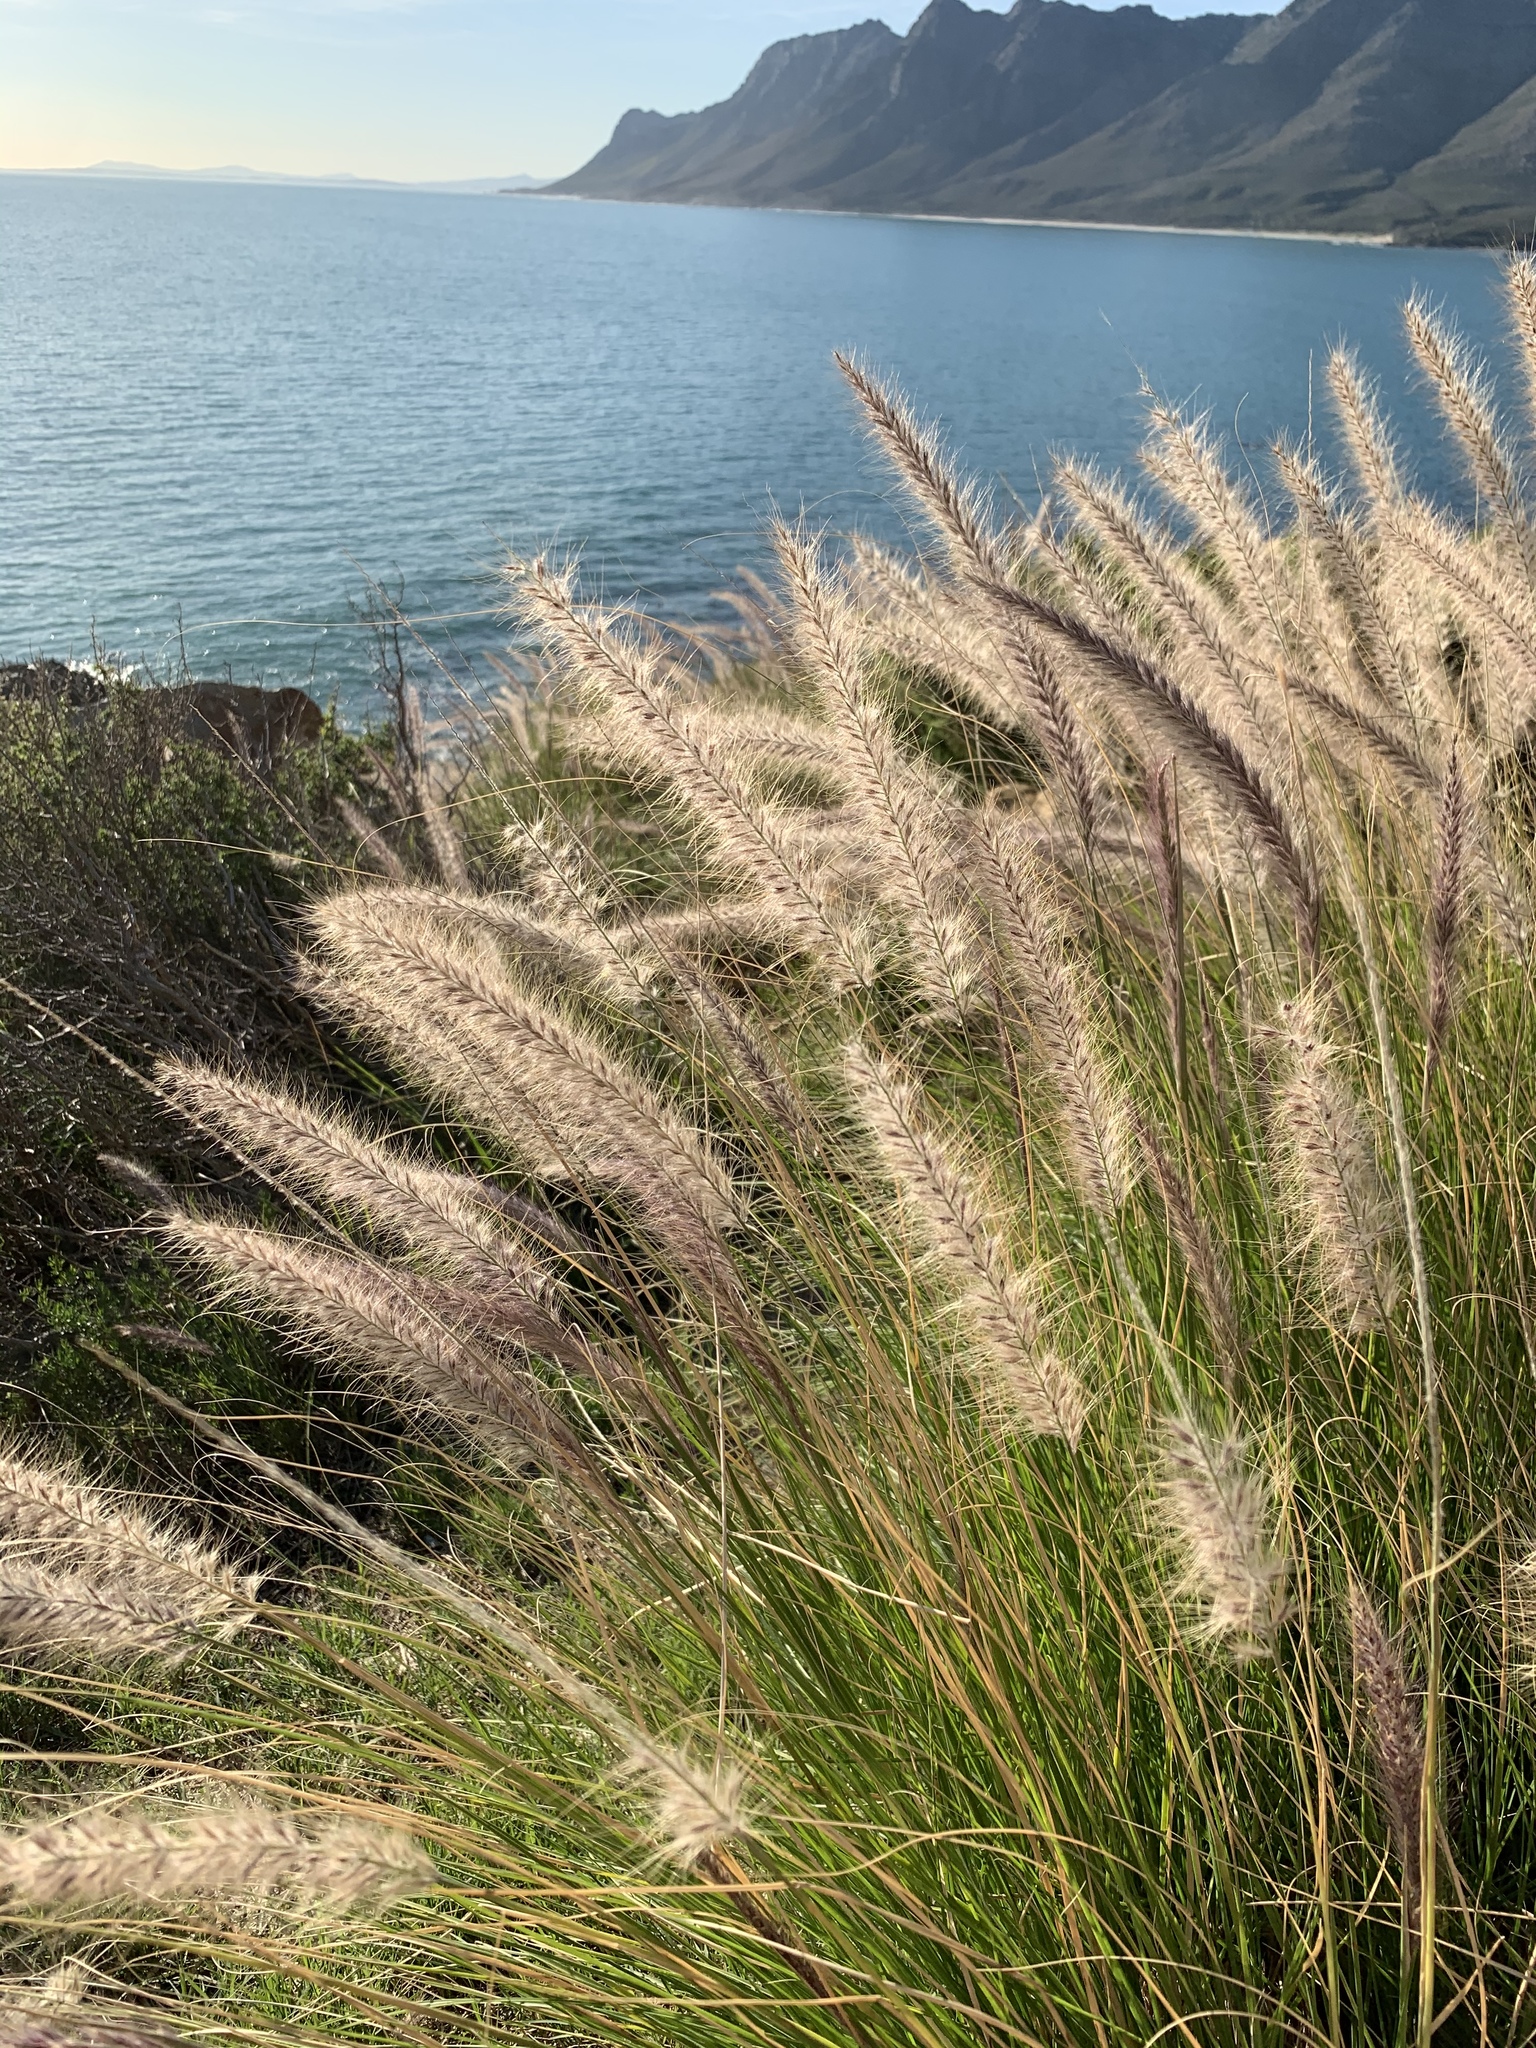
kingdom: Plantae
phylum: Tracheophyta
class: Liliopsida
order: Poales
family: Poaceae
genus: Cenchrus
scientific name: Cenchrus setaceus
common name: Crimson fountaingrass
